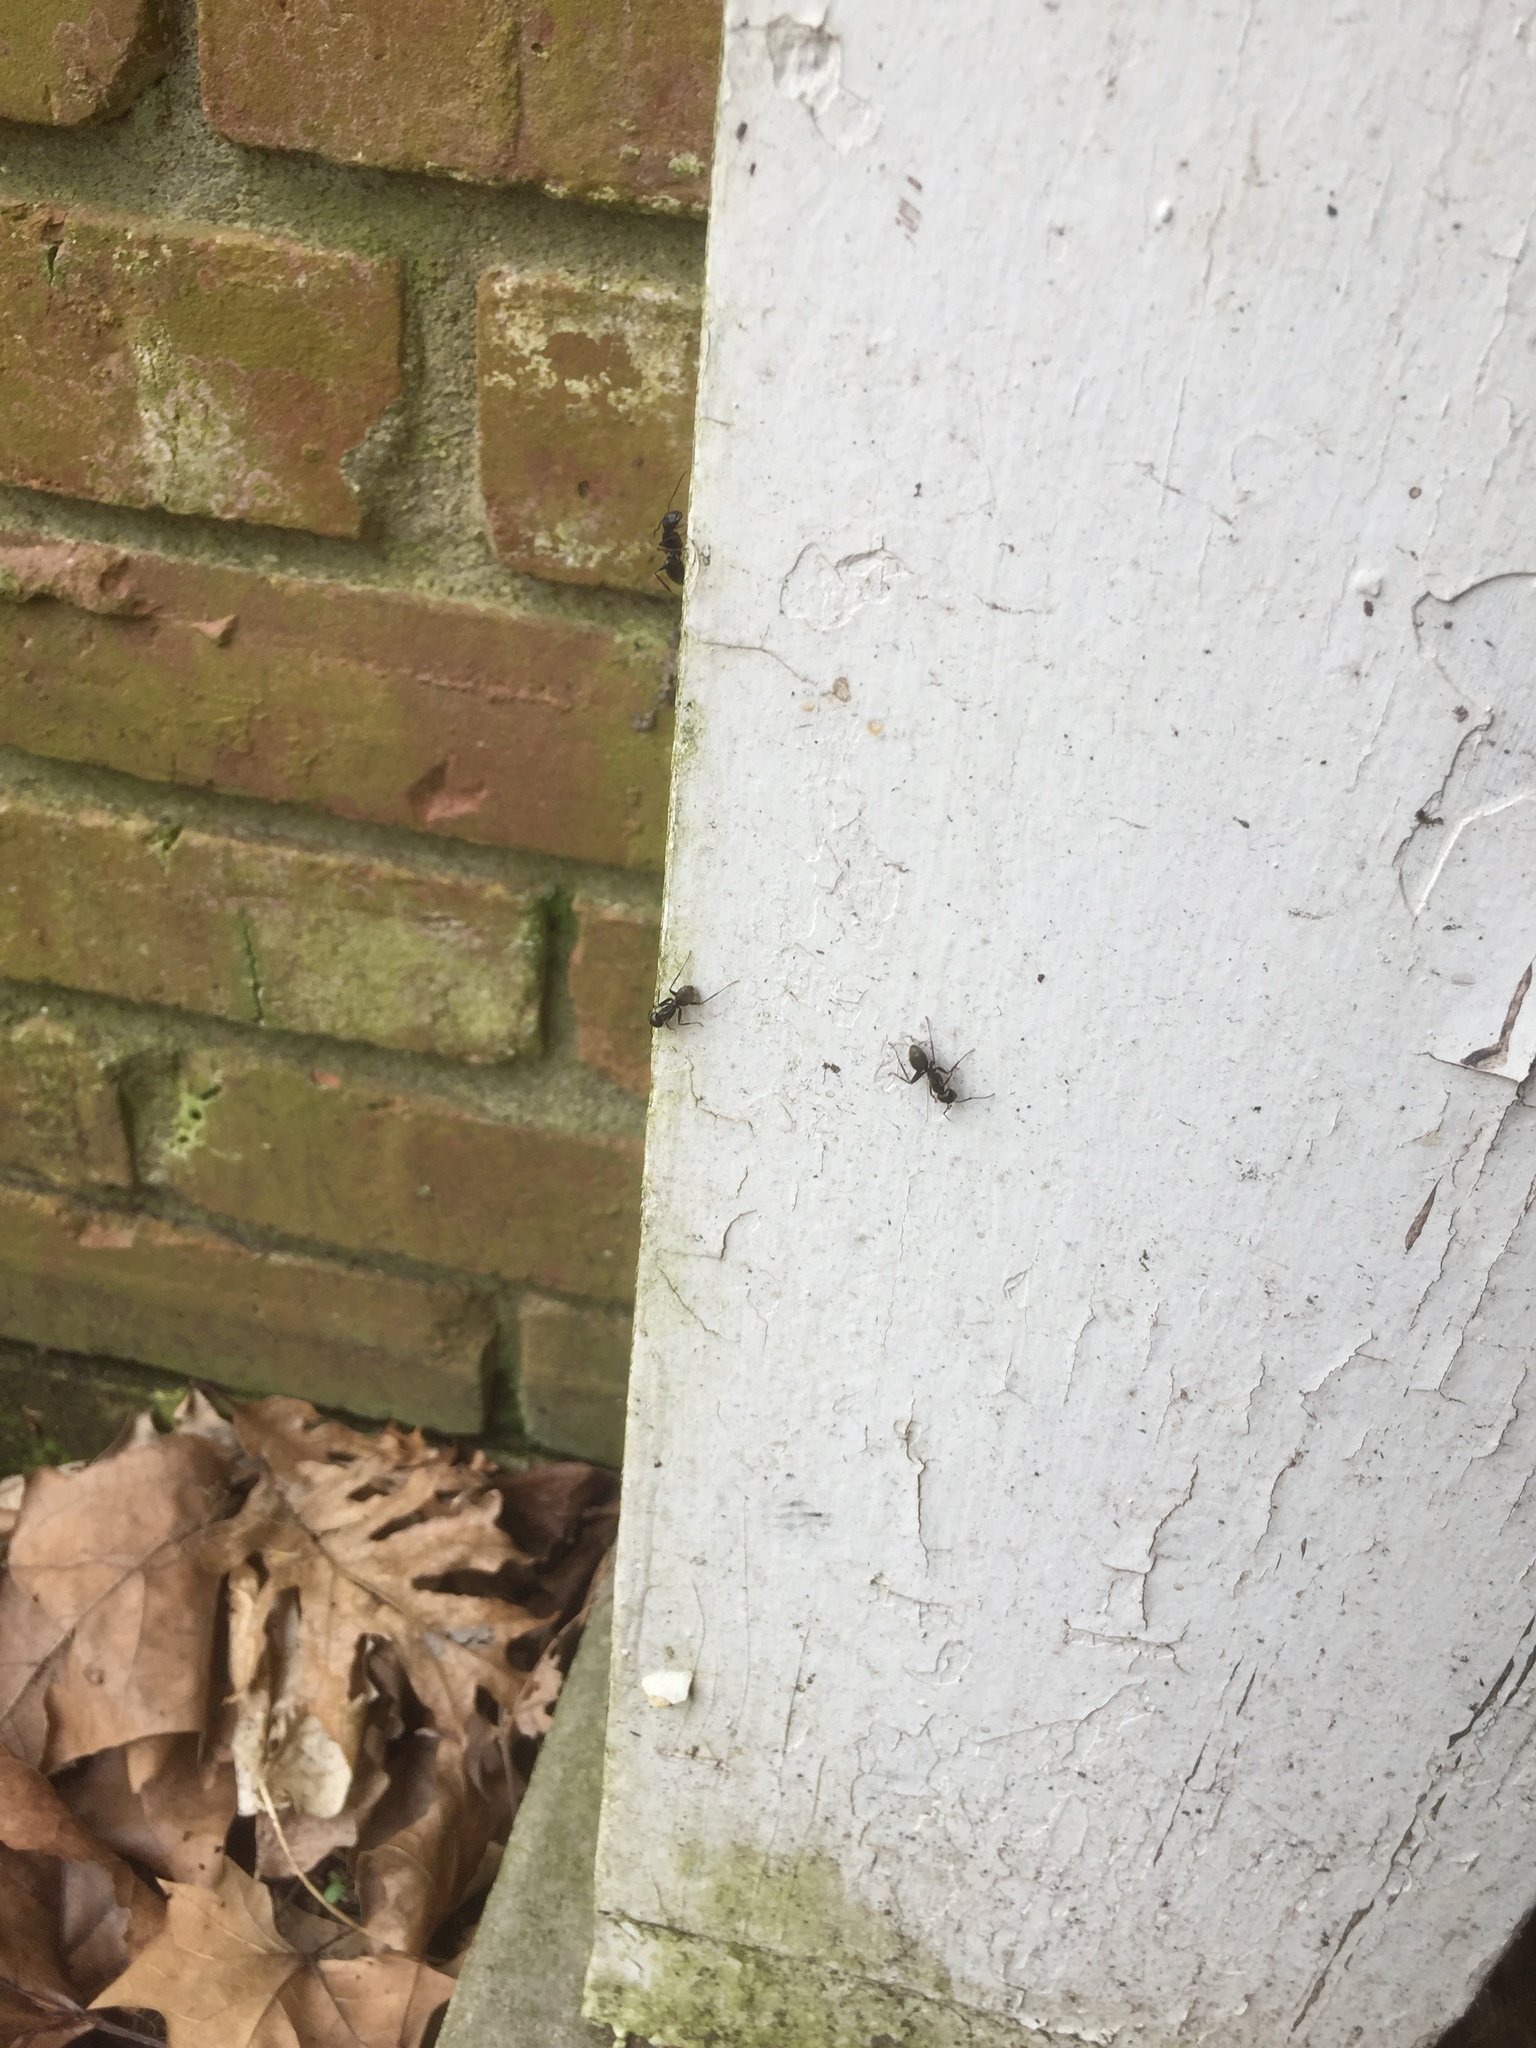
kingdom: Animalia
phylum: Arthropoda
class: Insecta
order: Hymenoptera
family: Formicidae
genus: Camponotus
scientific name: Camponotus pennsylvanicus
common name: Black carpenter ant
